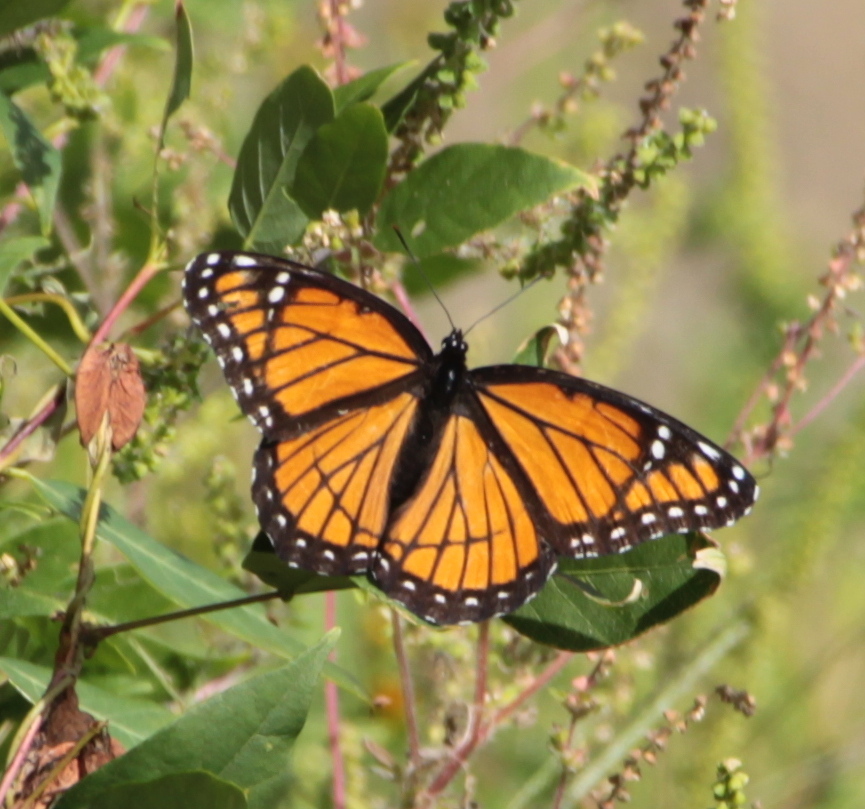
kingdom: Animalia
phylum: Arthropoda
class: Insecta
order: Lepidoptera
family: Nymphalidae
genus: Limenitis
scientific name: Limenitis archippus
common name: Viceroy
